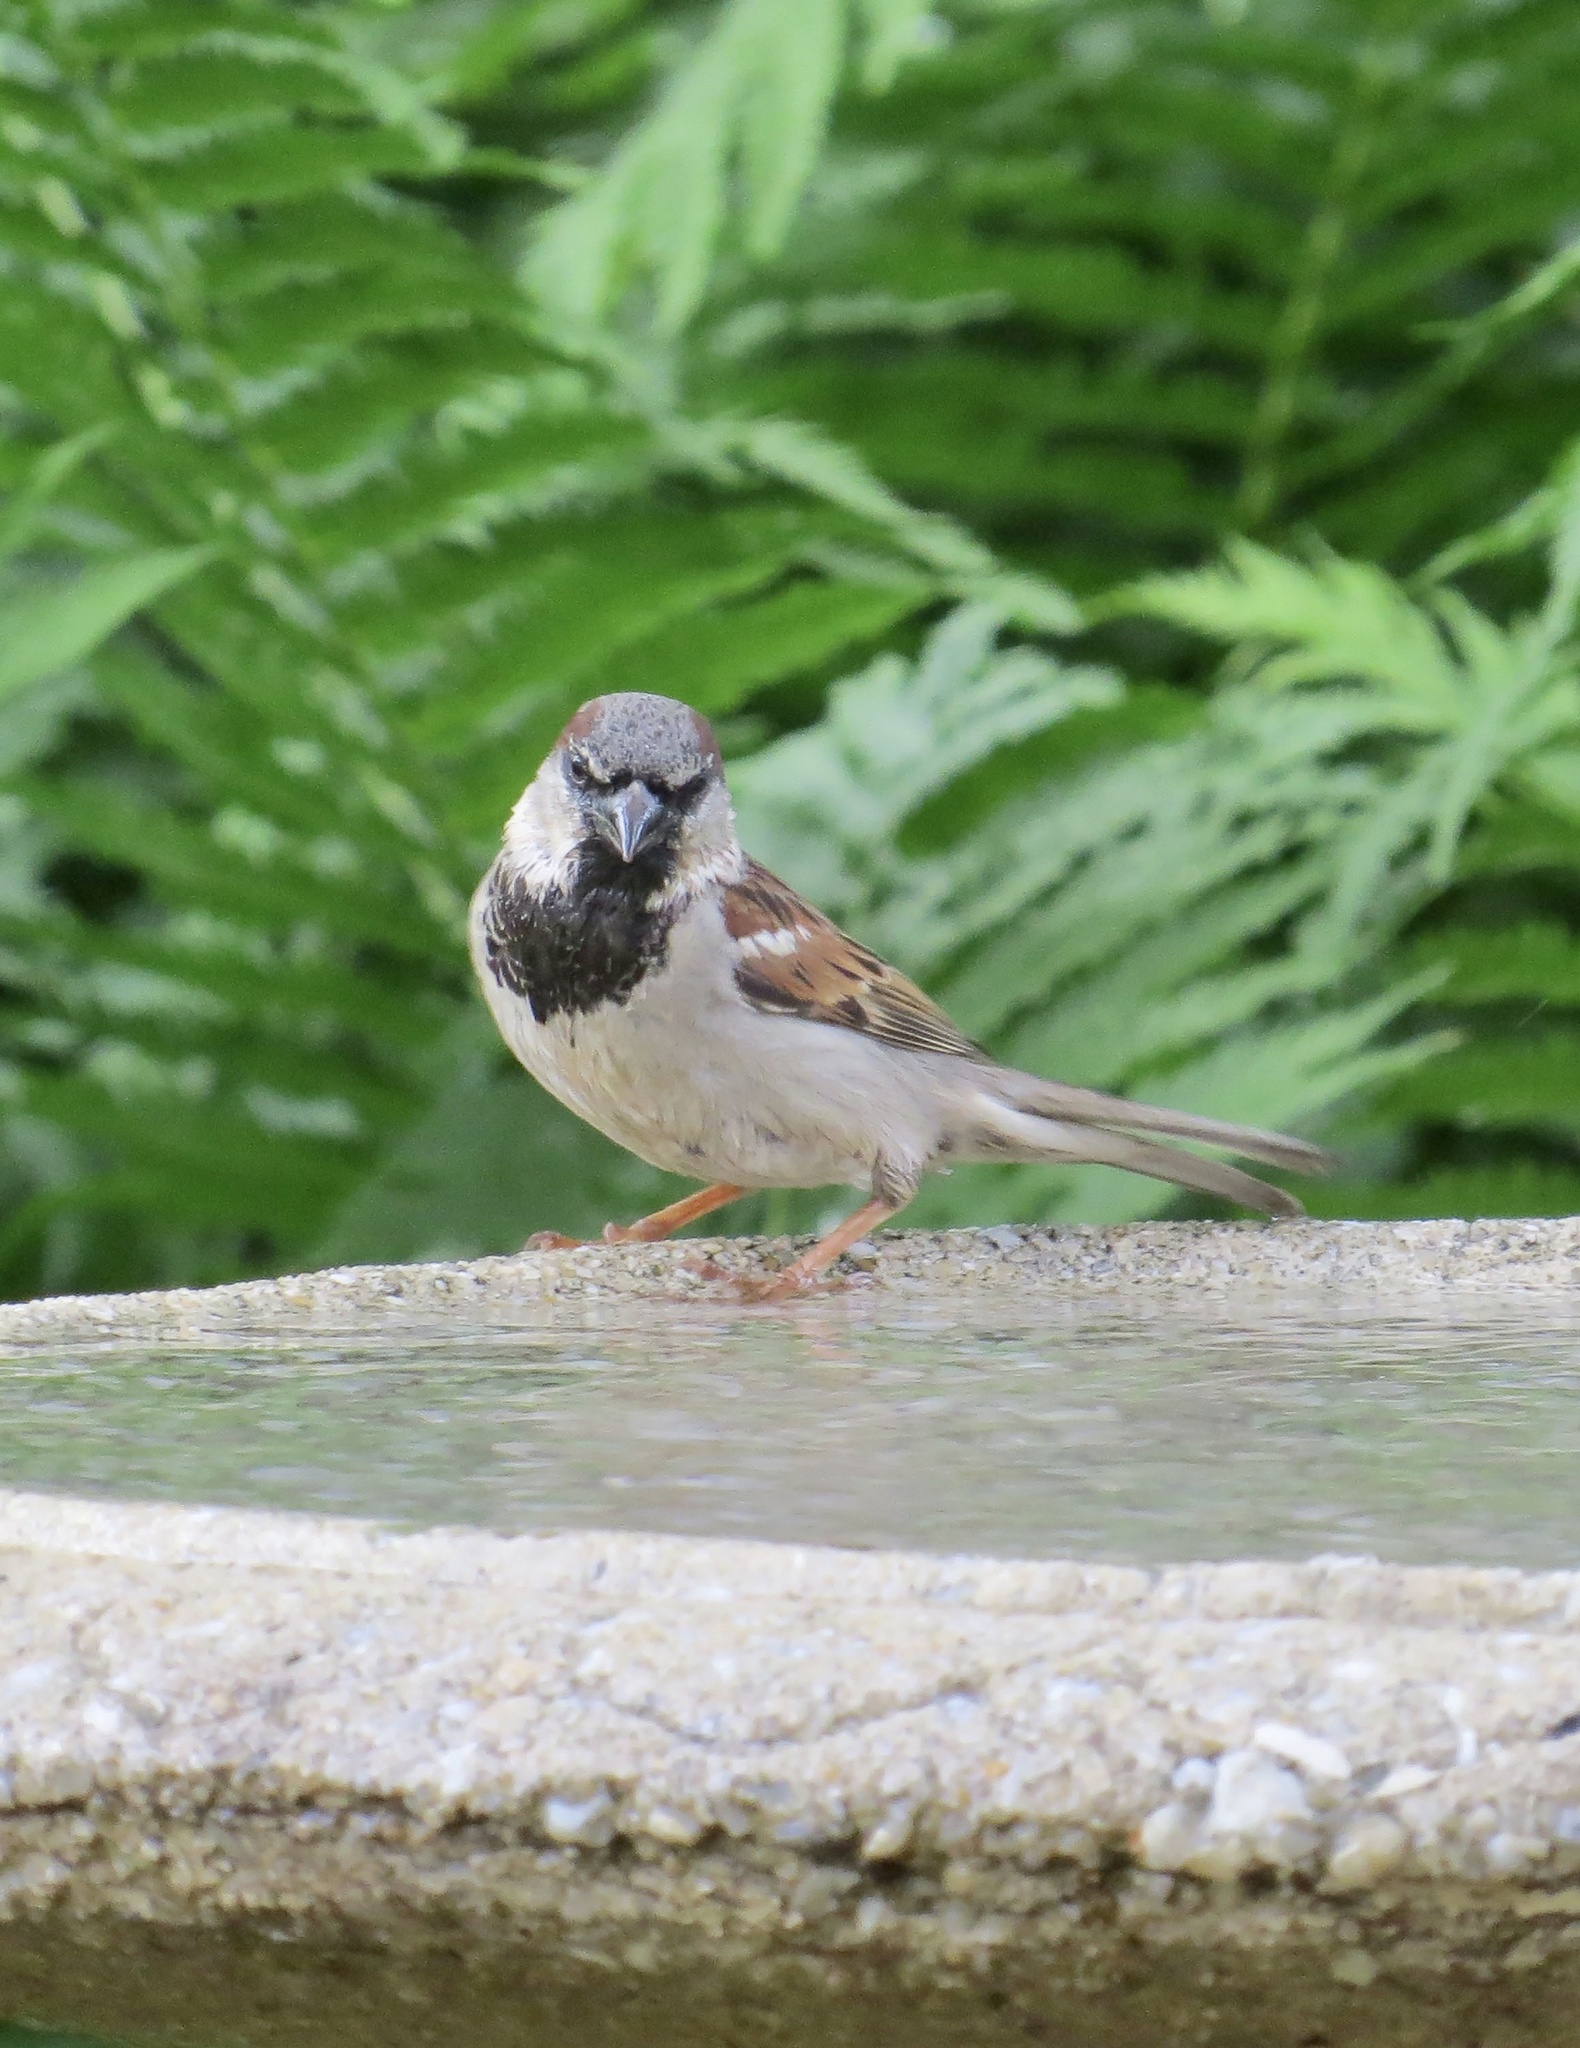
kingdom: Animalia
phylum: Chordata
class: Aves
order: Passeriformes
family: Passeridae
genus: Passer
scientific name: Passer domesticus
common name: House sparrow
